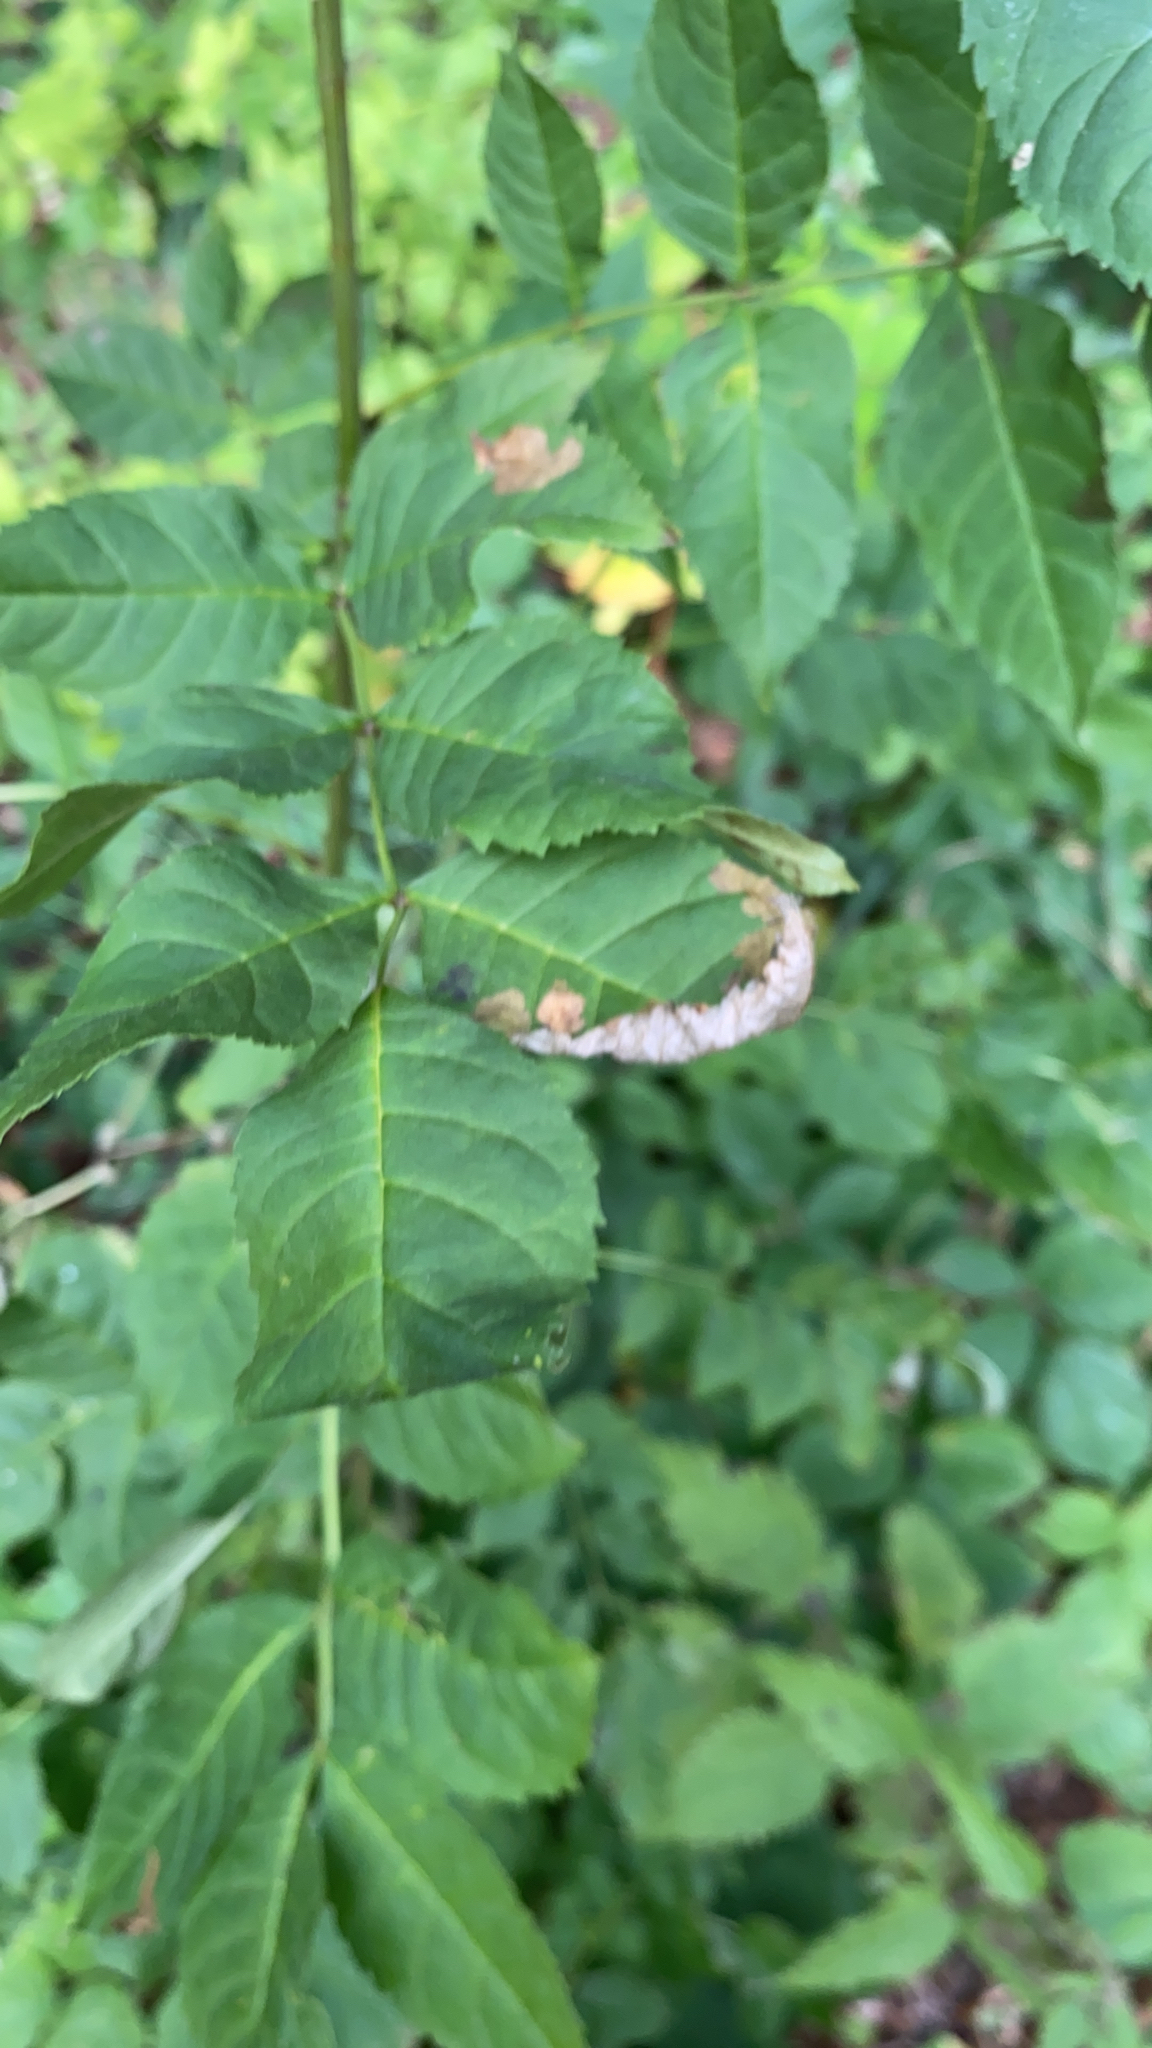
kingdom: Plantae
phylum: Tracheophyta
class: Magnoliopsida
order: Lamiales
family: Oleaceae
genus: Fraxinus
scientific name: Fraxinus excelsior
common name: European ash
